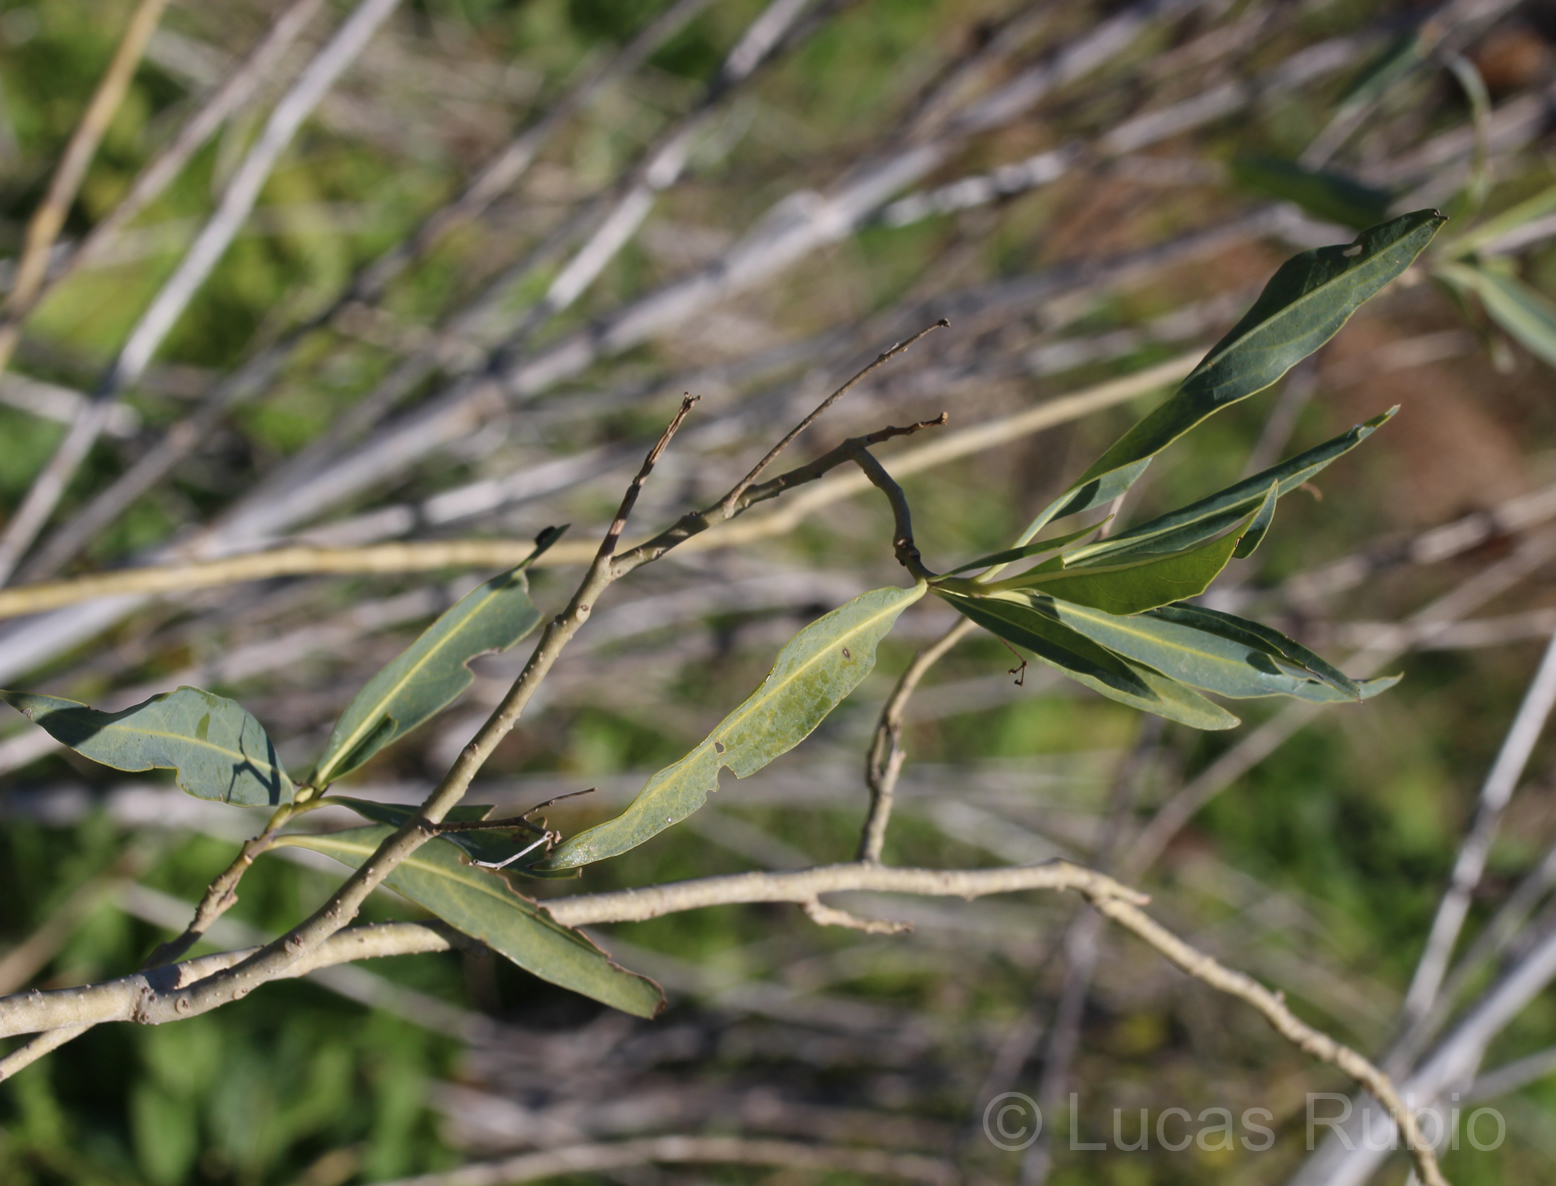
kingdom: Plantae
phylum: Tracheophyta
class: Magnoliopsida
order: Solanales
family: Solanaceae
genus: Solanum
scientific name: Solanum glaucophyllum
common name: Waxyleaf nightshade
